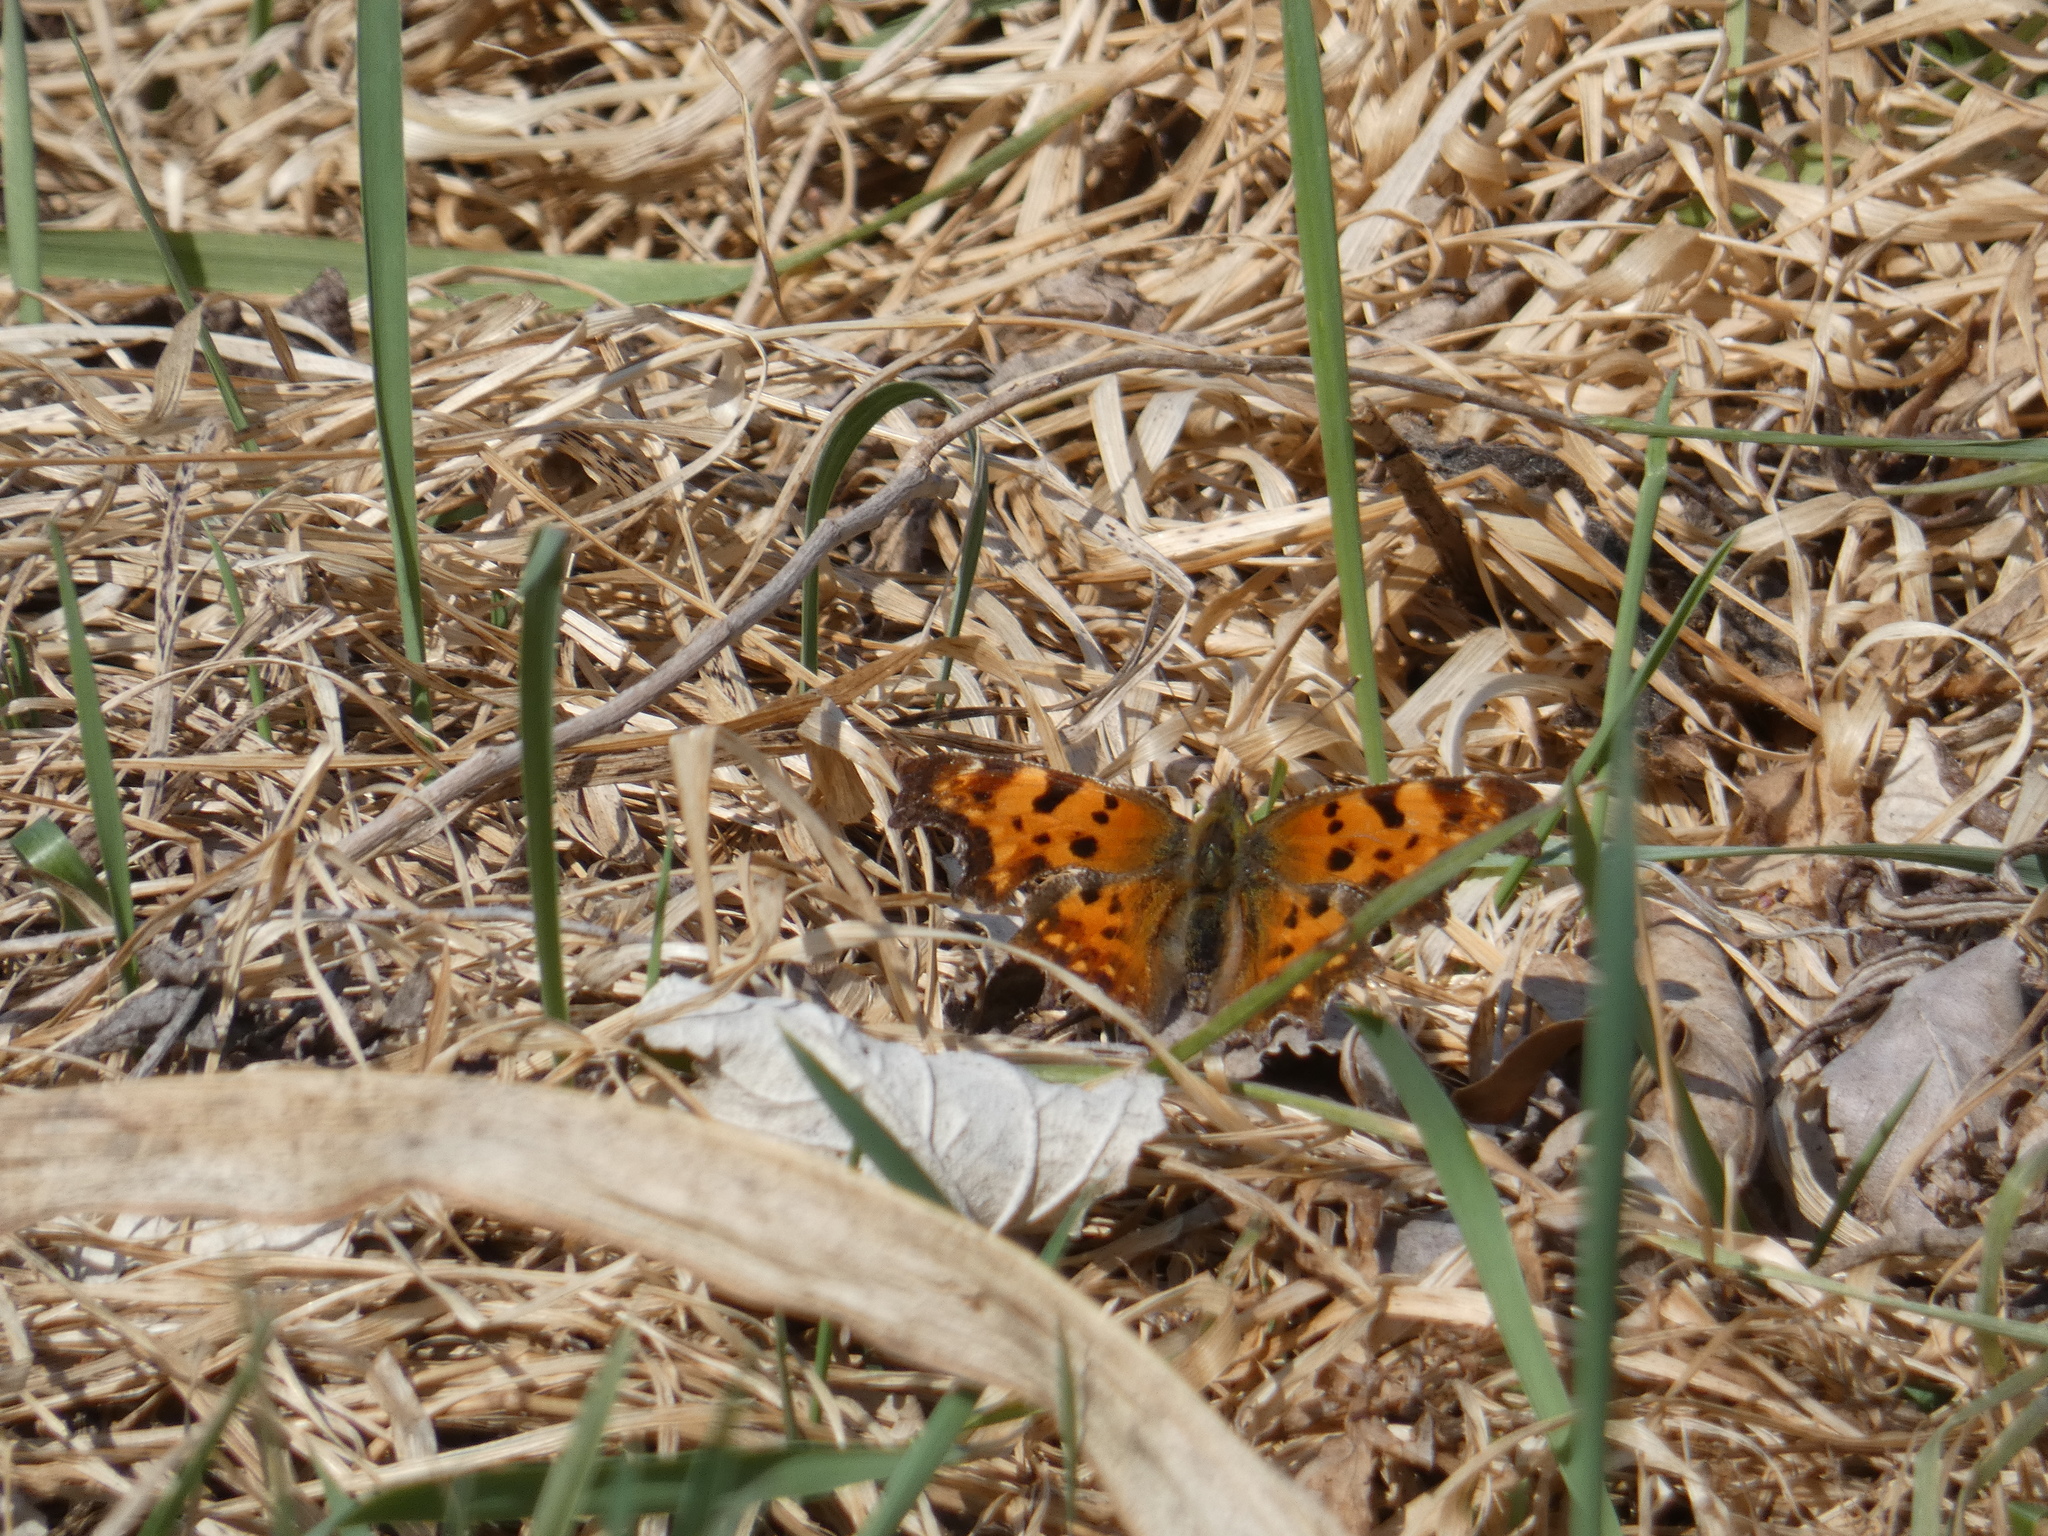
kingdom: Animalia
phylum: Arthropoda
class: Insecta
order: Lepidoptera
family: Nymphalidae
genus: Polygonia
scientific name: Polygonia c-album
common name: Comma
